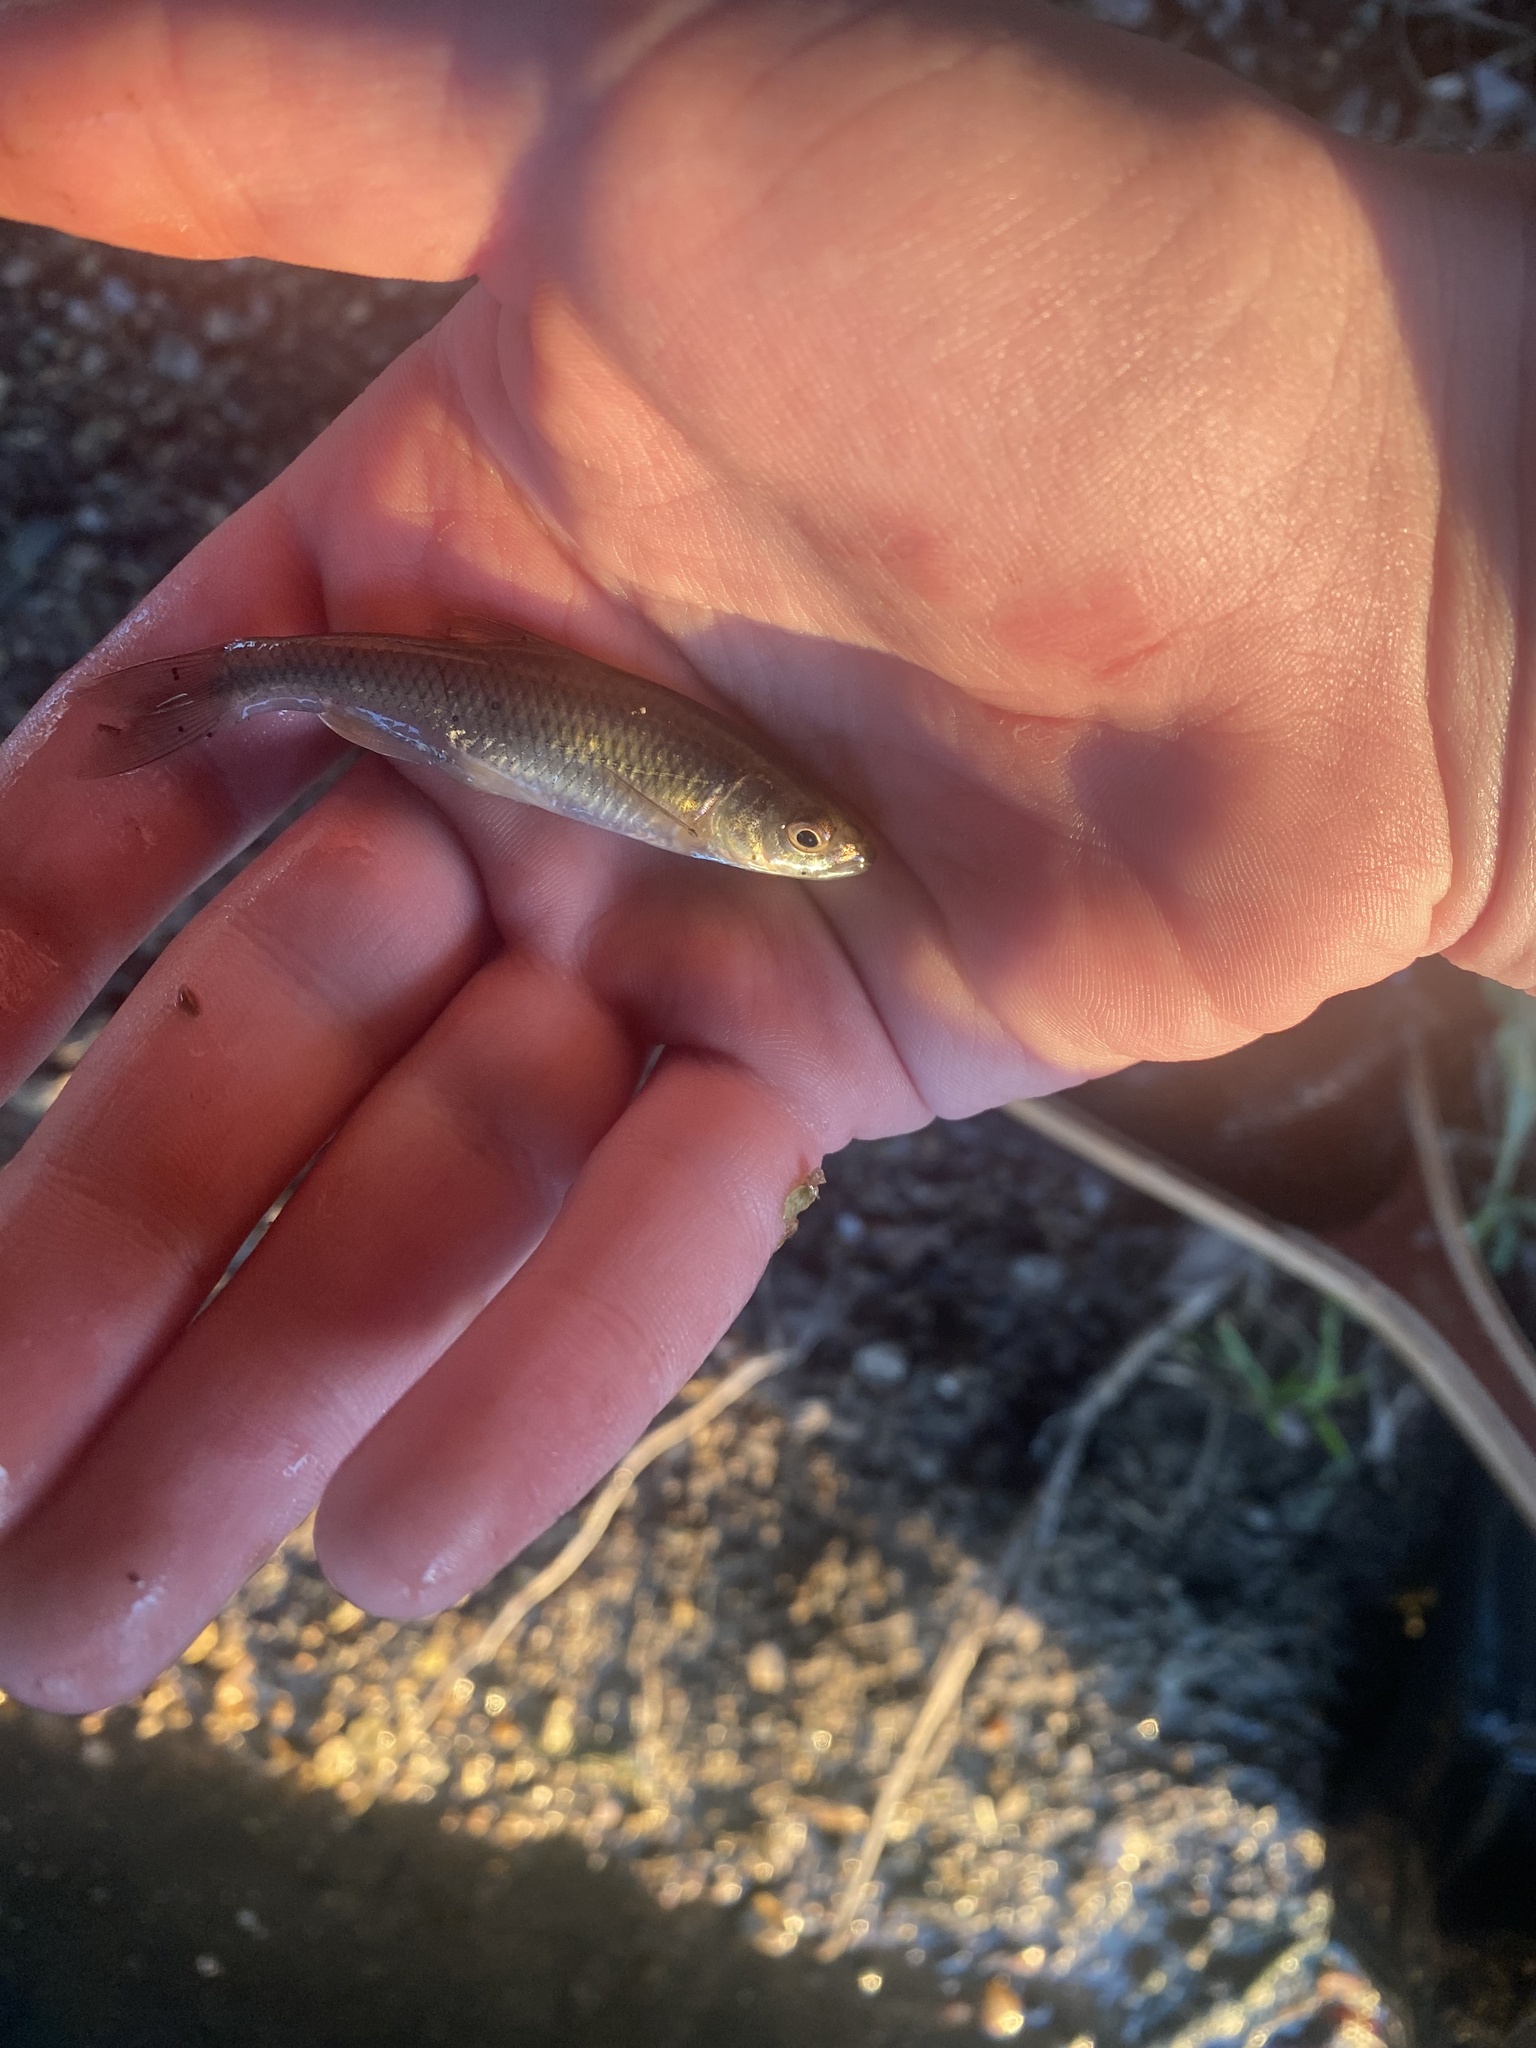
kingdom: Animalia
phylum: Chordata
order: Cypriniformes
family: Cyprinidae
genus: Cyprinella
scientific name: Cyprinella spiloptera
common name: Spotfin shiner
